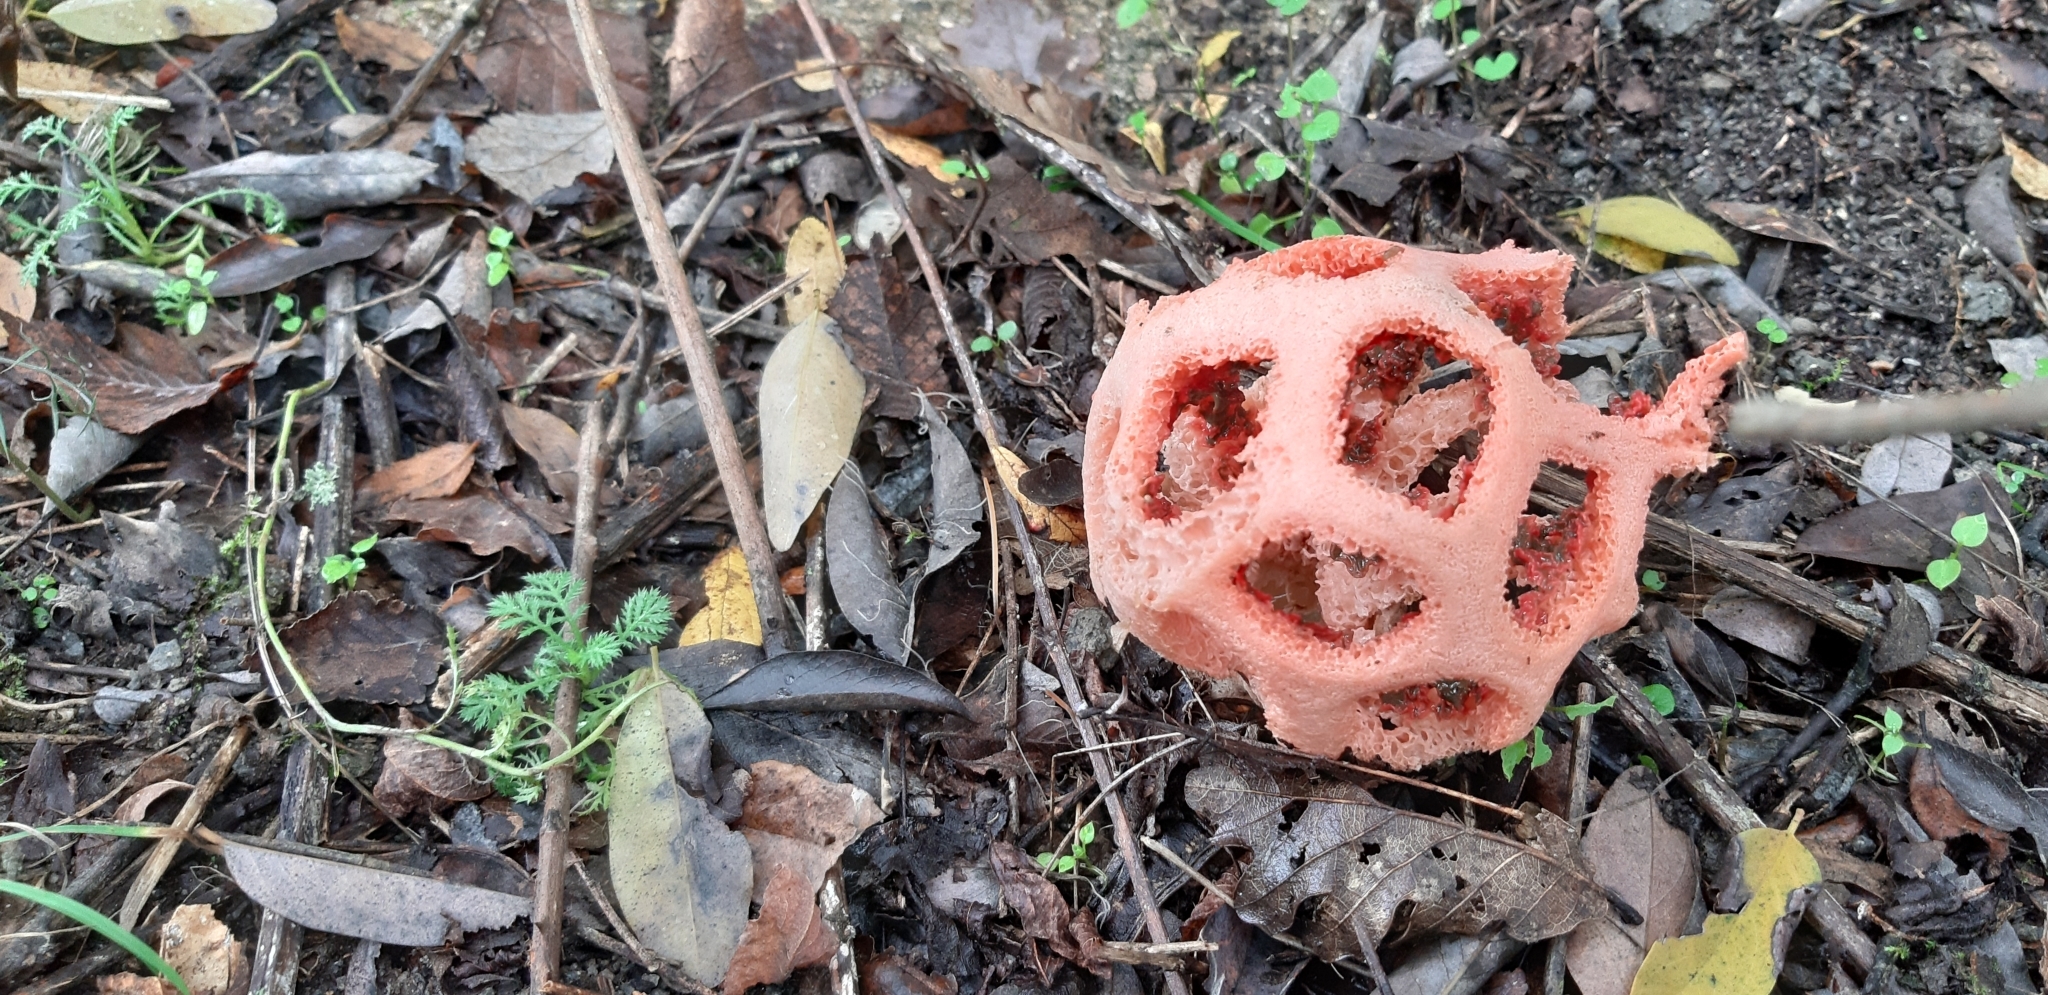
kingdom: Fungi
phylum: Basidiomycota
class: Agaricomycetes
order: Phallales
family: Phallaceae
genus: Clathrus
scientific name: Clathrus ruber
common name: Red cage
